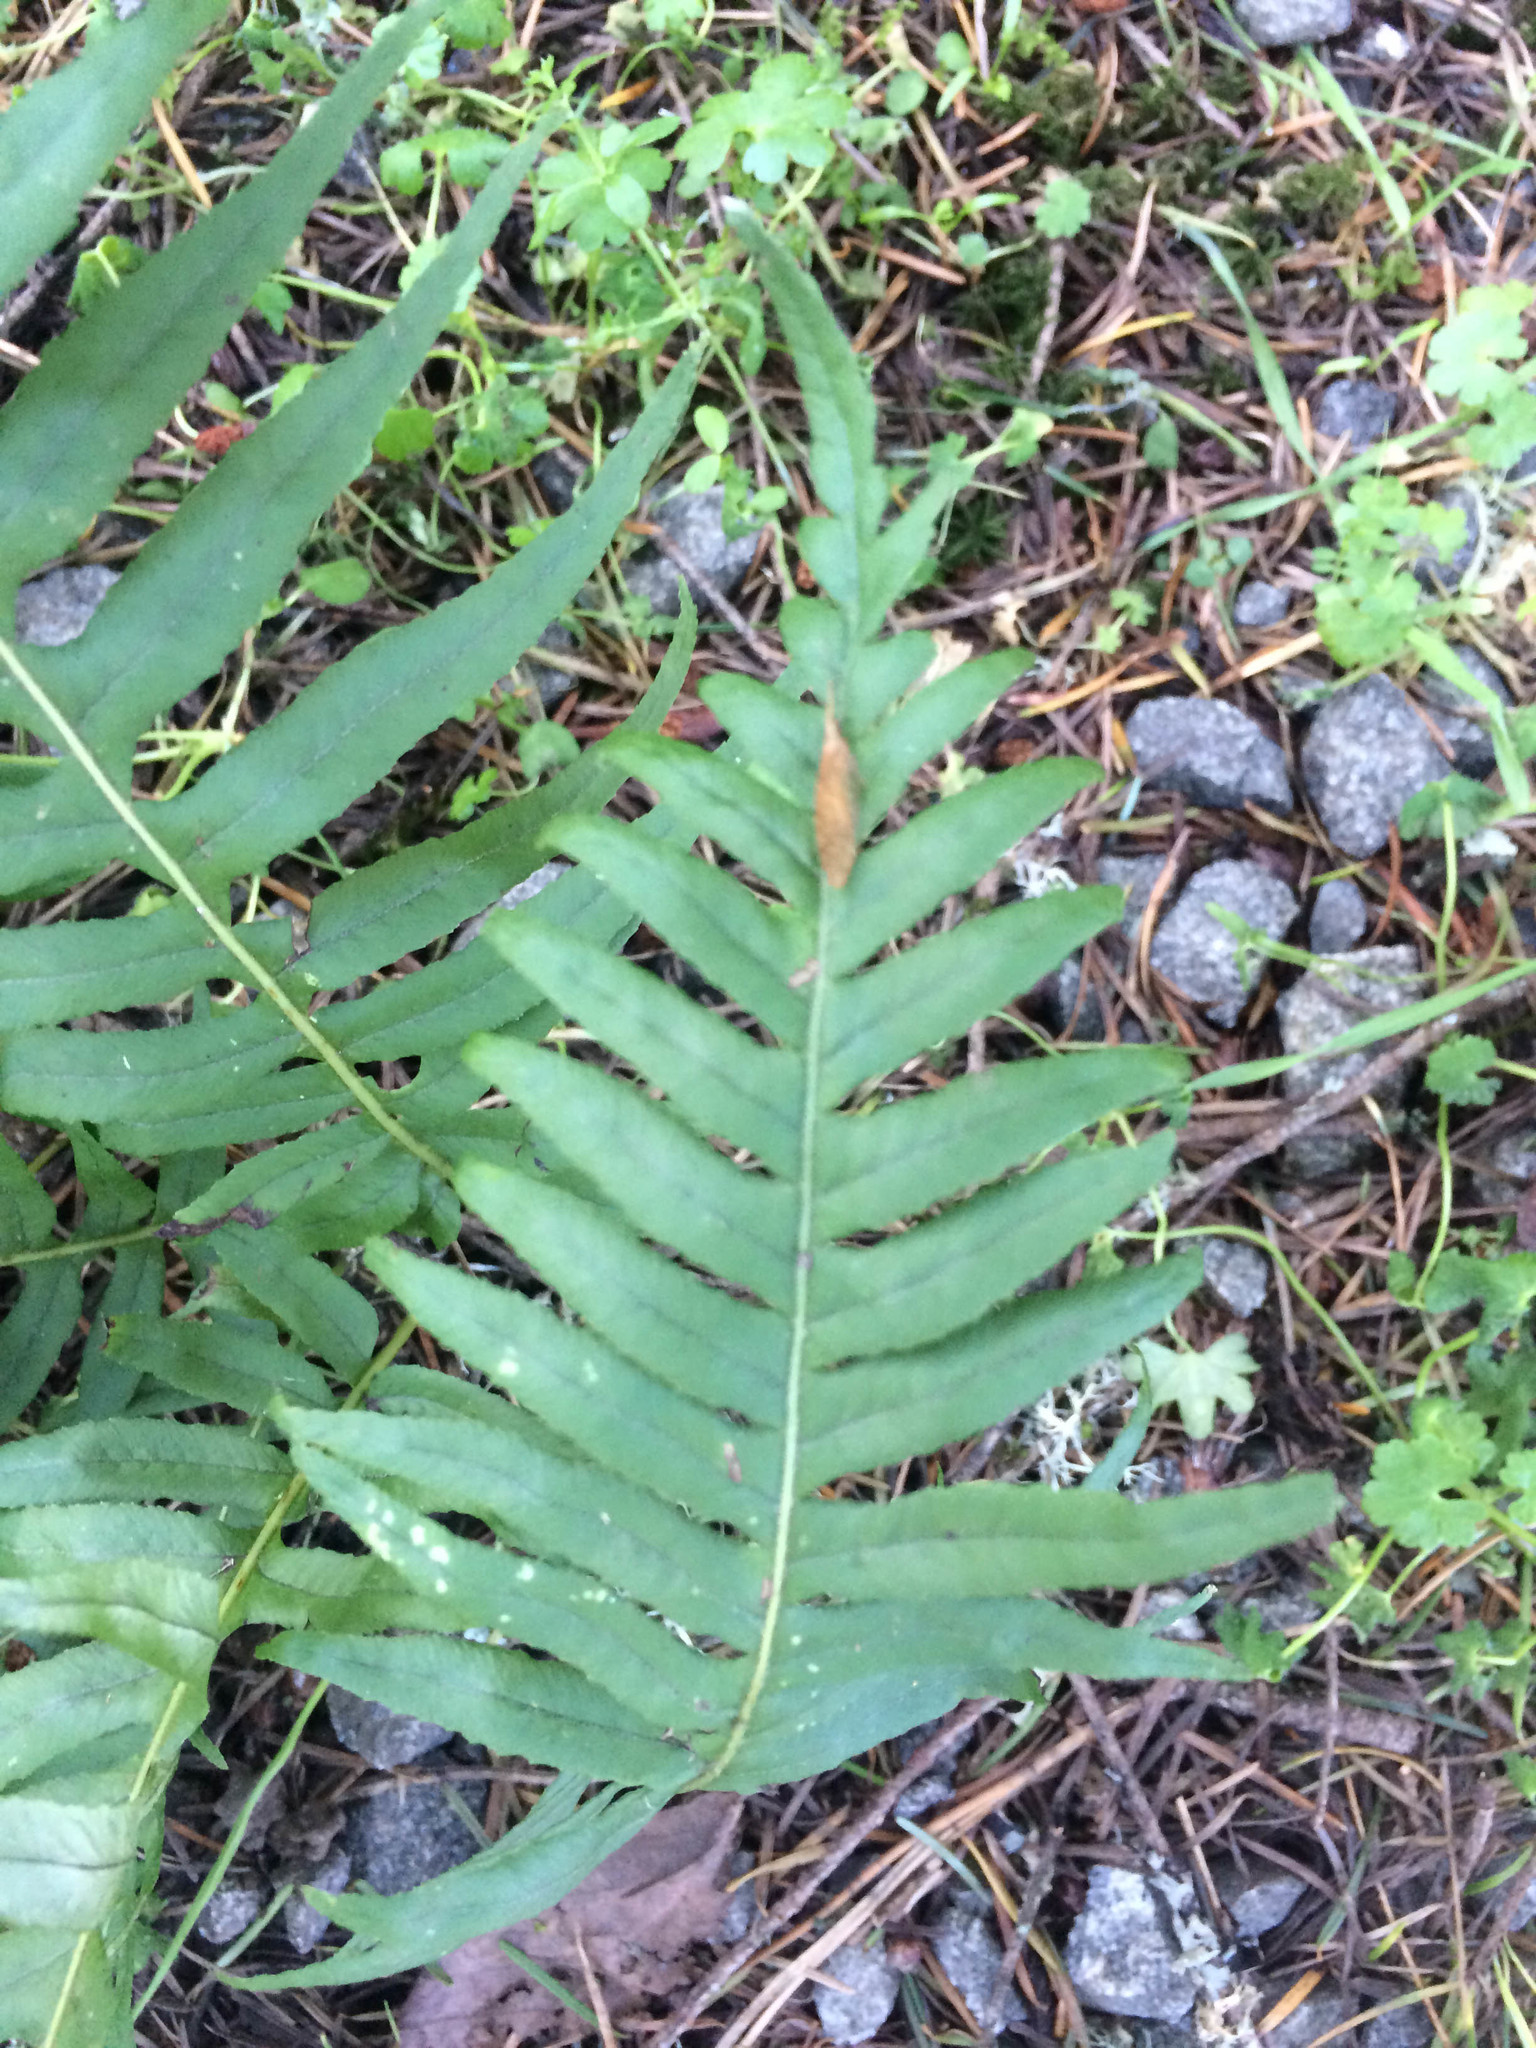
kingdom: Plantae
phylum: Tracheophyta
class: Polypodiopsida
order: Polypodiales
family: Polypodiaceae
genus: Polypodium
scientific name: Polypodium glycyrrhiza
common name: Licorice fern
